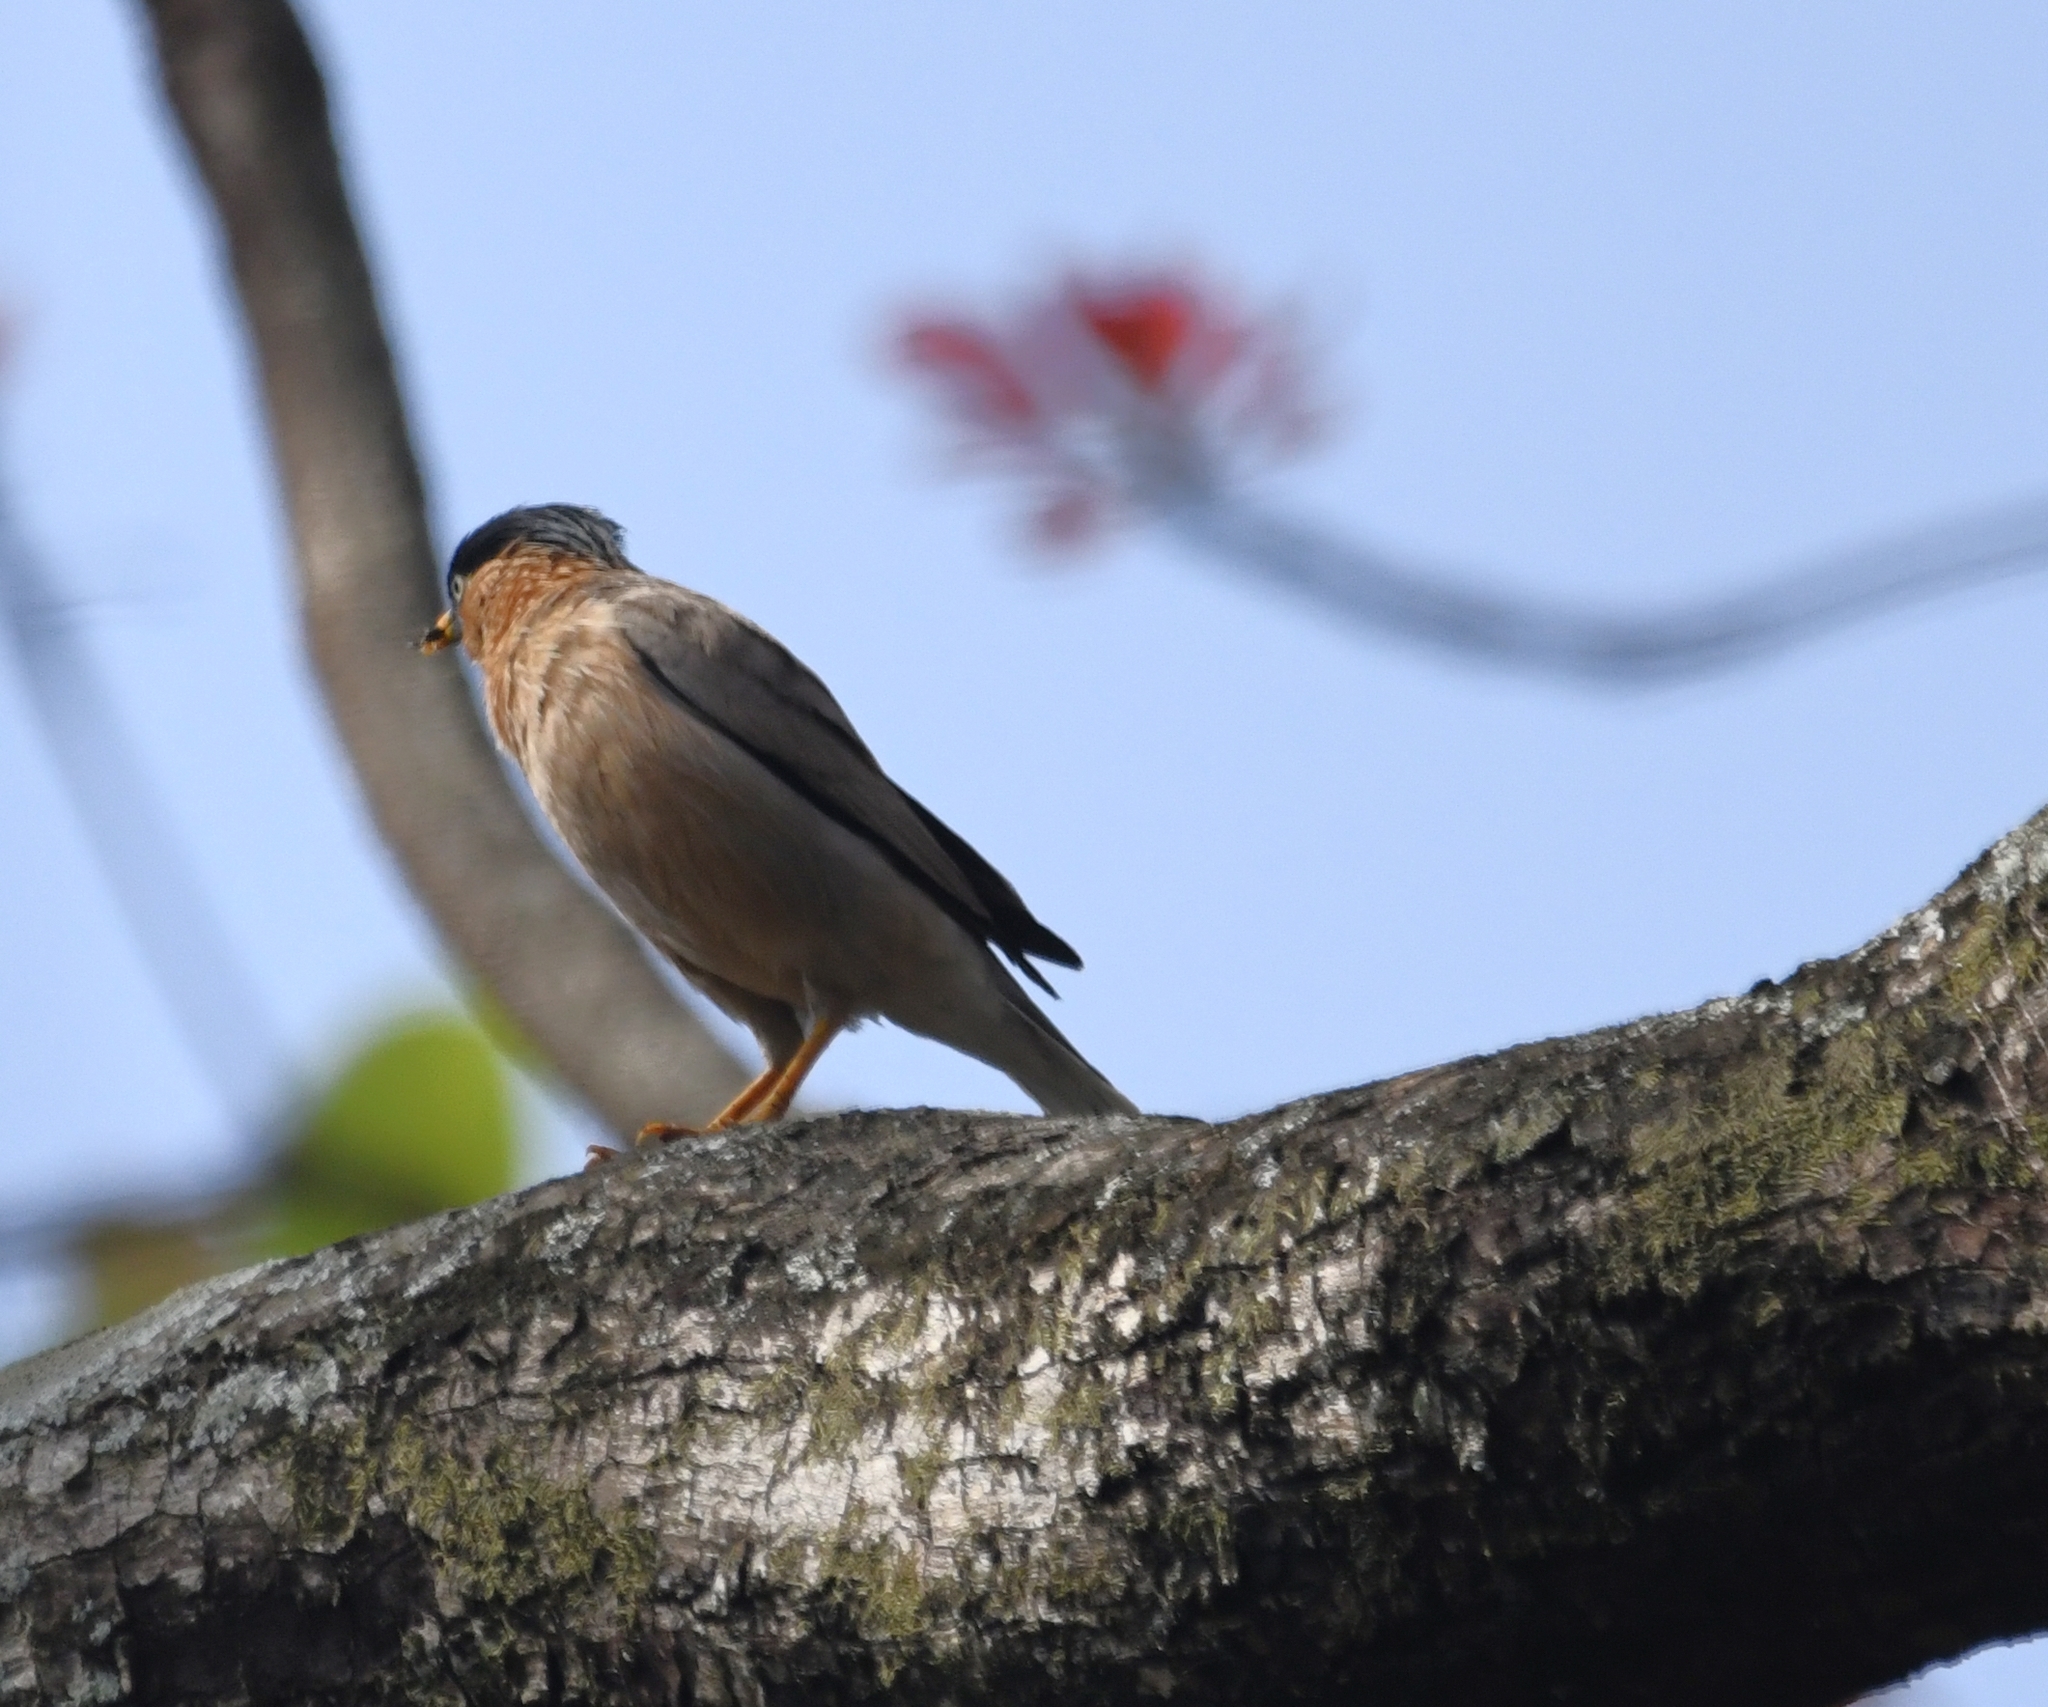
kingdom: Animalia
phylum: Chordata
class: Aves
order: Passeriformes
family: Sturnidae
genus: Sturnia
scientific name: Sturnia pagodarum
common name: Brahminy starling
